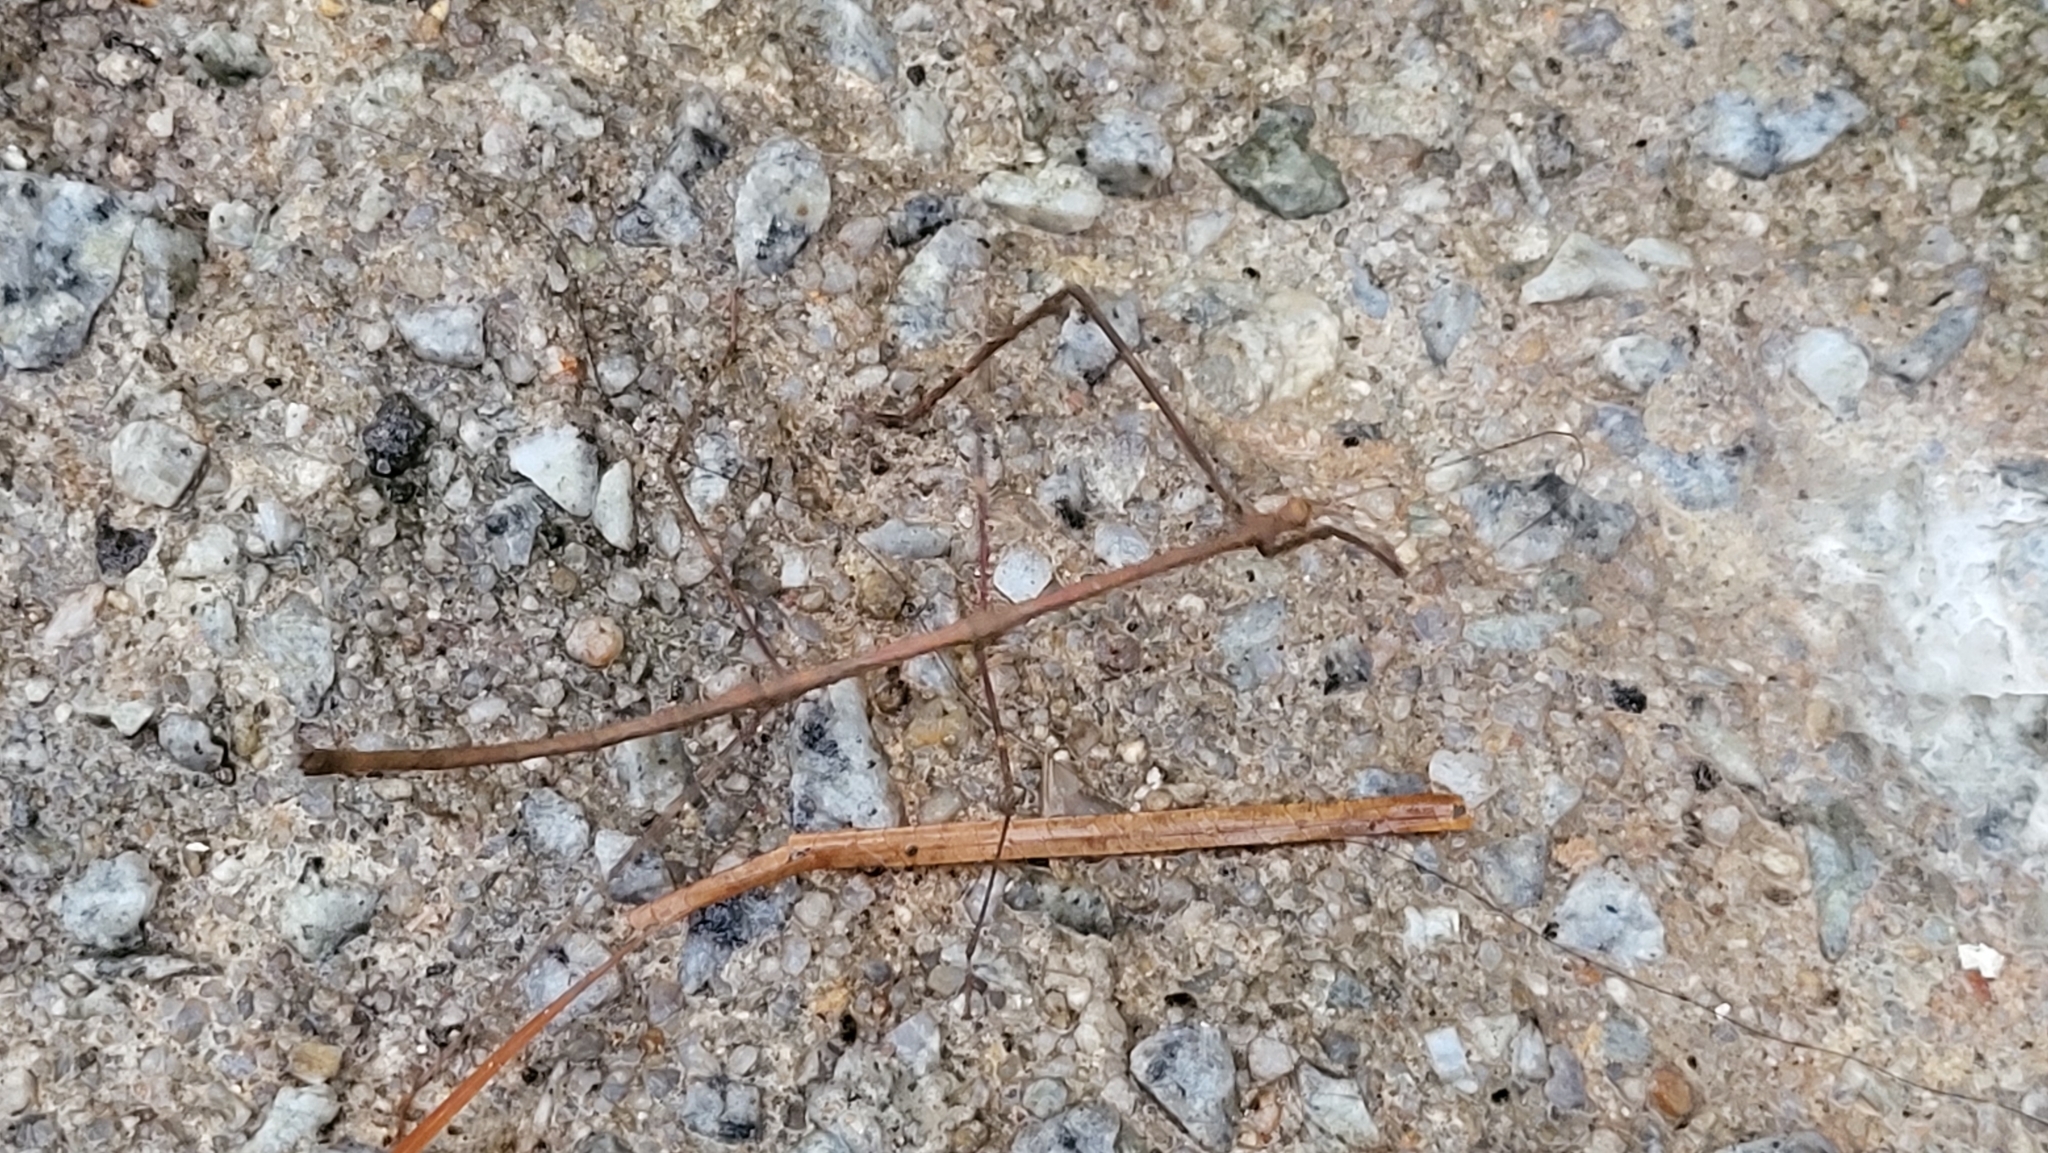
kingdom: Animalia
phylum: Arthropoda
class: Insecta
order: Phasmida
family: Lonchodidae
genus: Carausius
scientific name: Carausius tanahrataensis
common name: Tanahrata's knob-back stick insect
